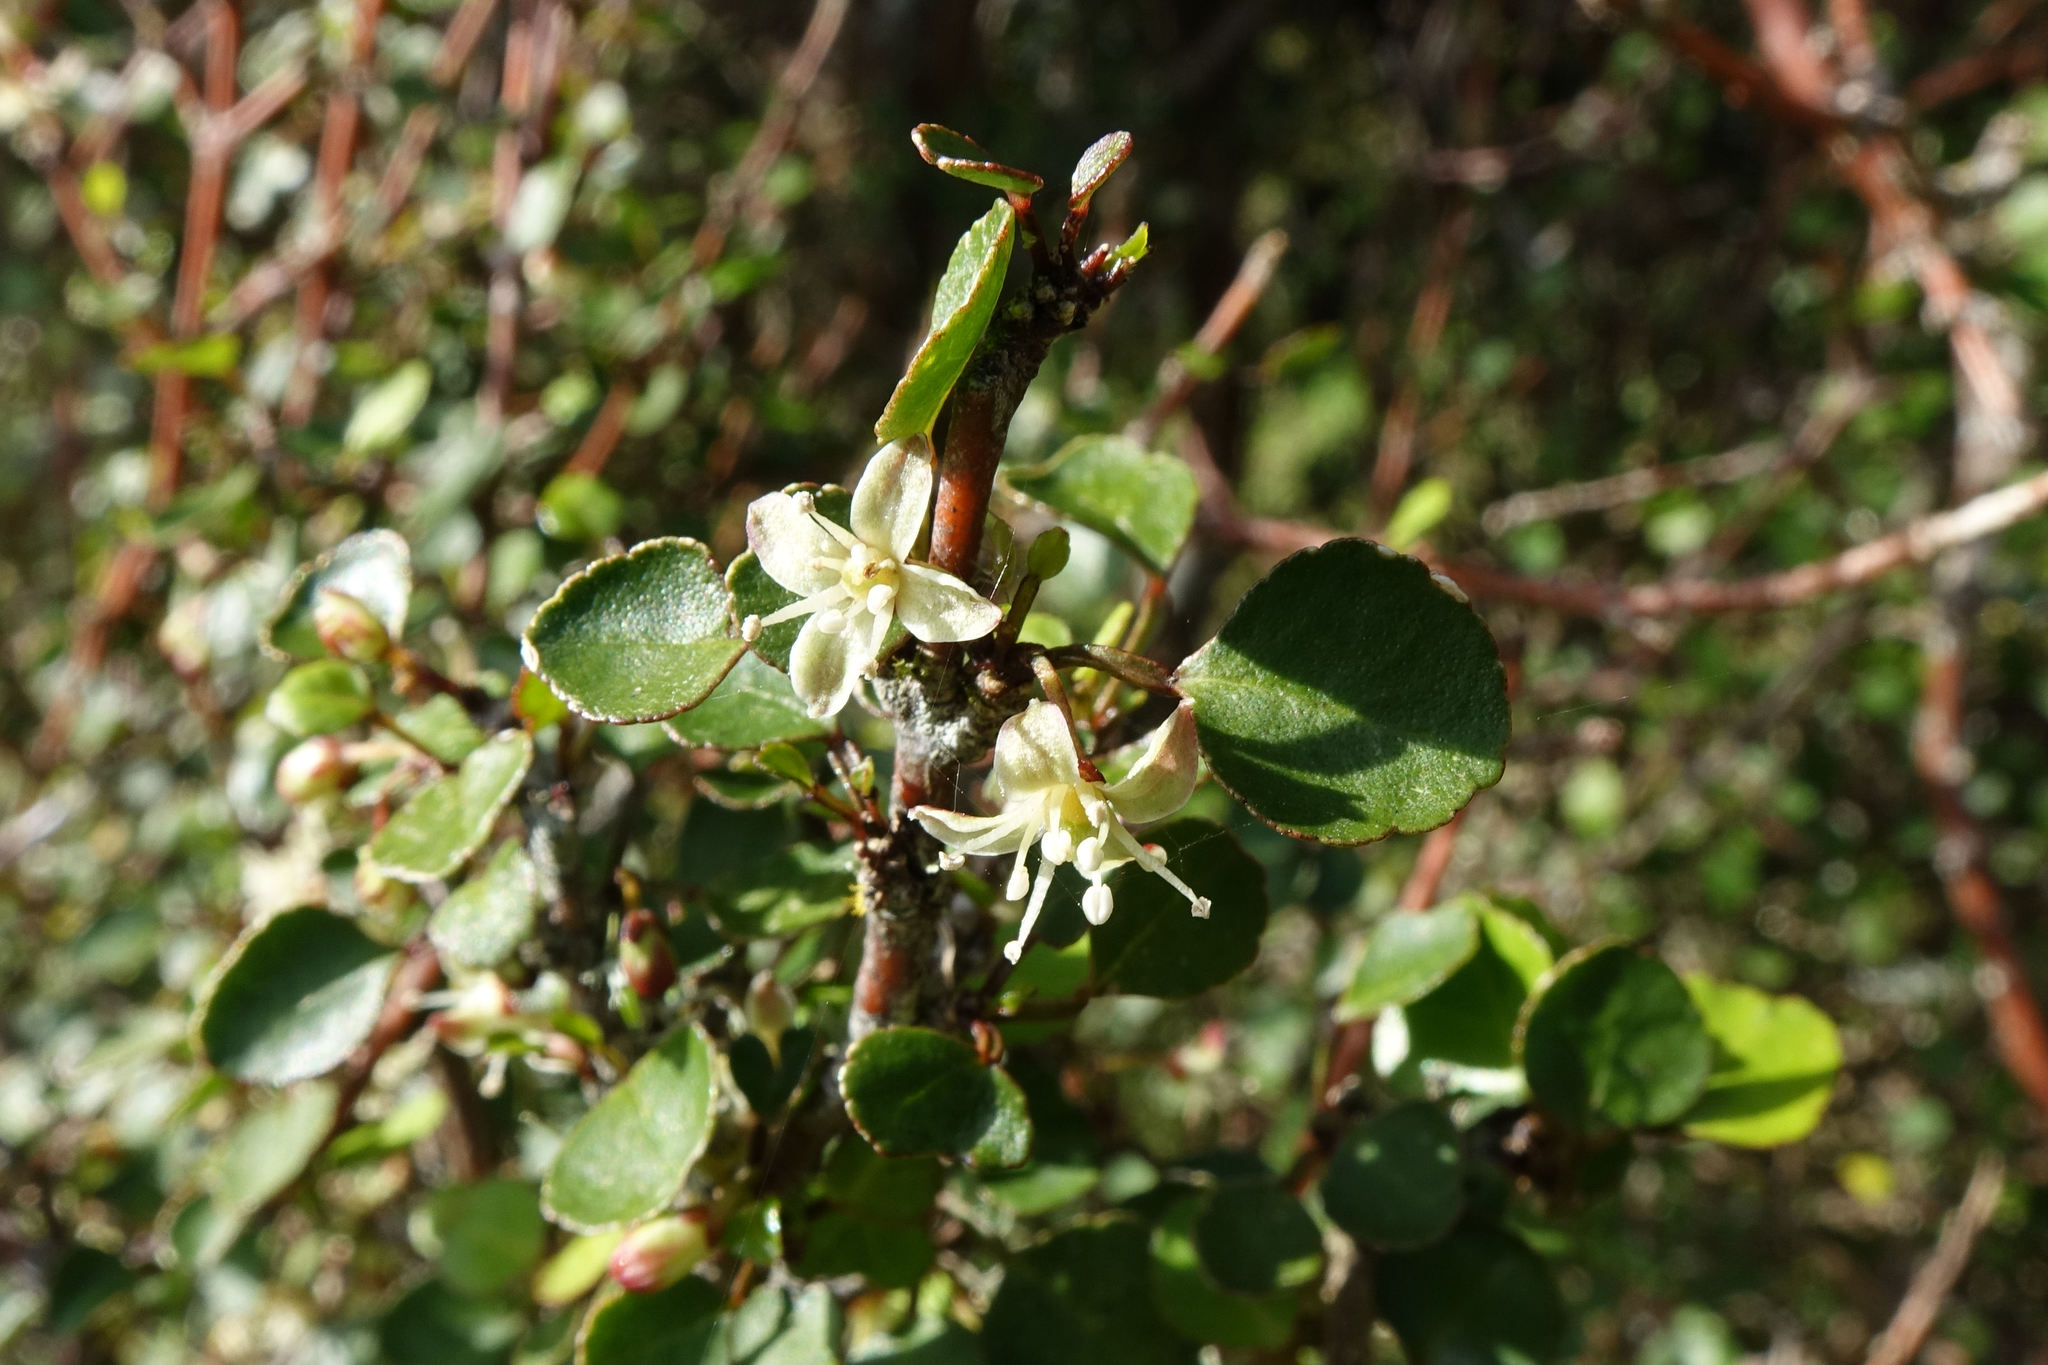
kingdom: Plantae
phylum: Tracheophyta
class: Magnoliopsida
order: Sapindales
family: Rutaceae
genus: Melicope
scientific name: Melicope simplex
